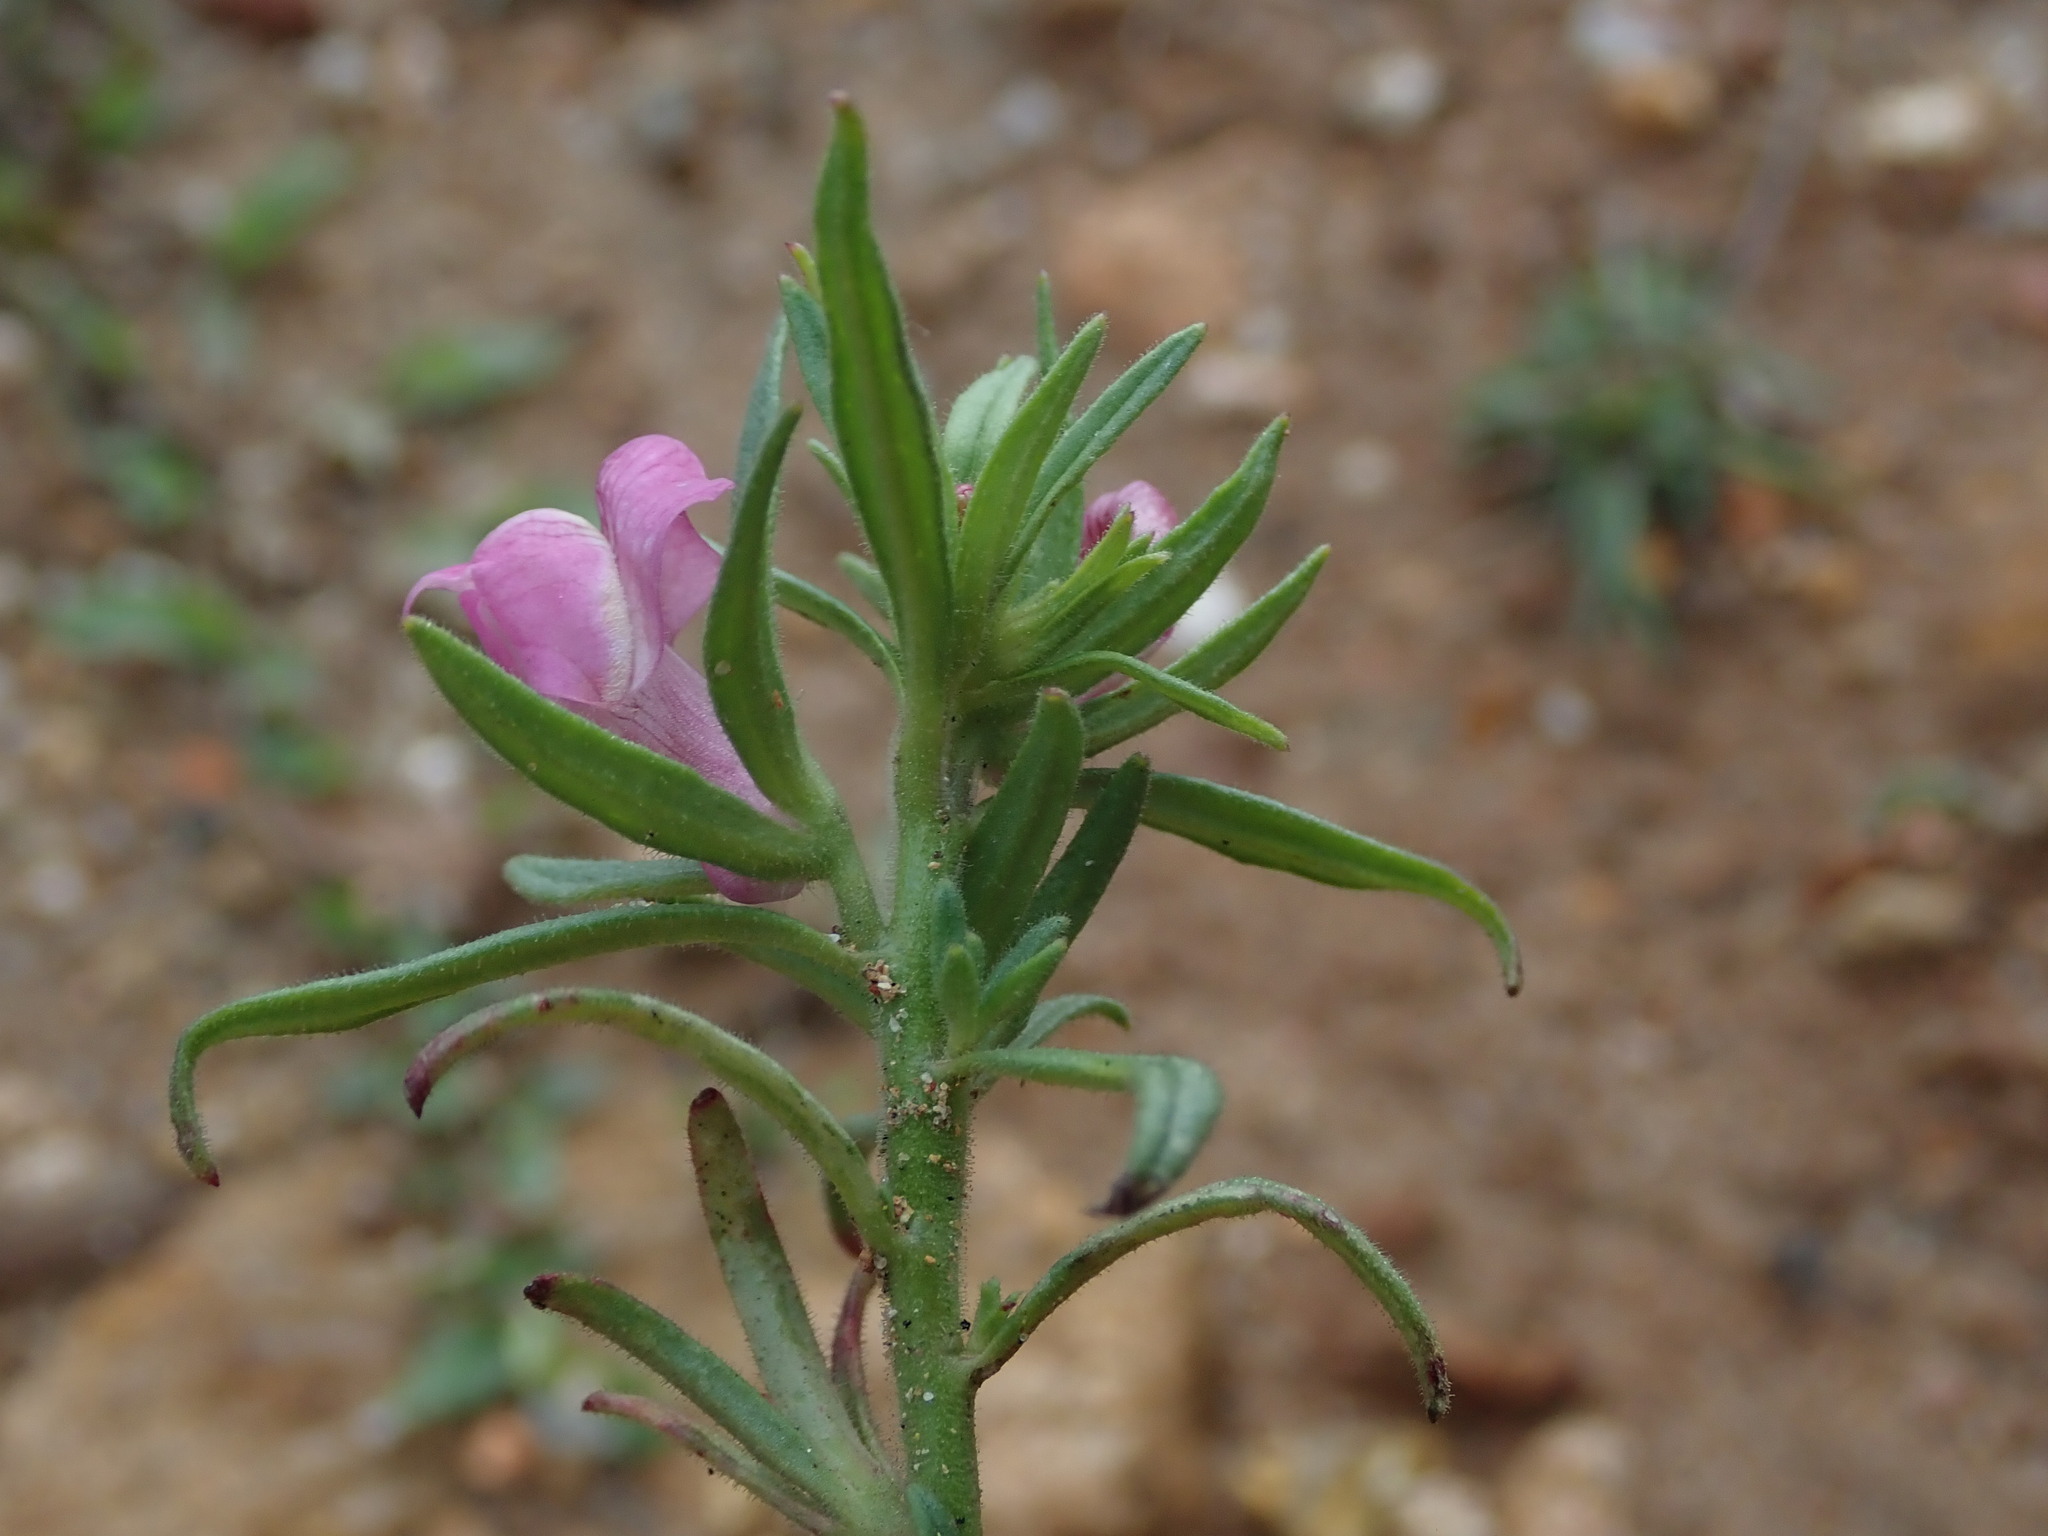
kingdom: Plantae
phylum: Tracheophyta
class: Magnoliopsida
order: Lamiales
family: Plantaginaceae
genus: Misopates
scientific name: Misopates orontium
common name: Weasel's-snout
